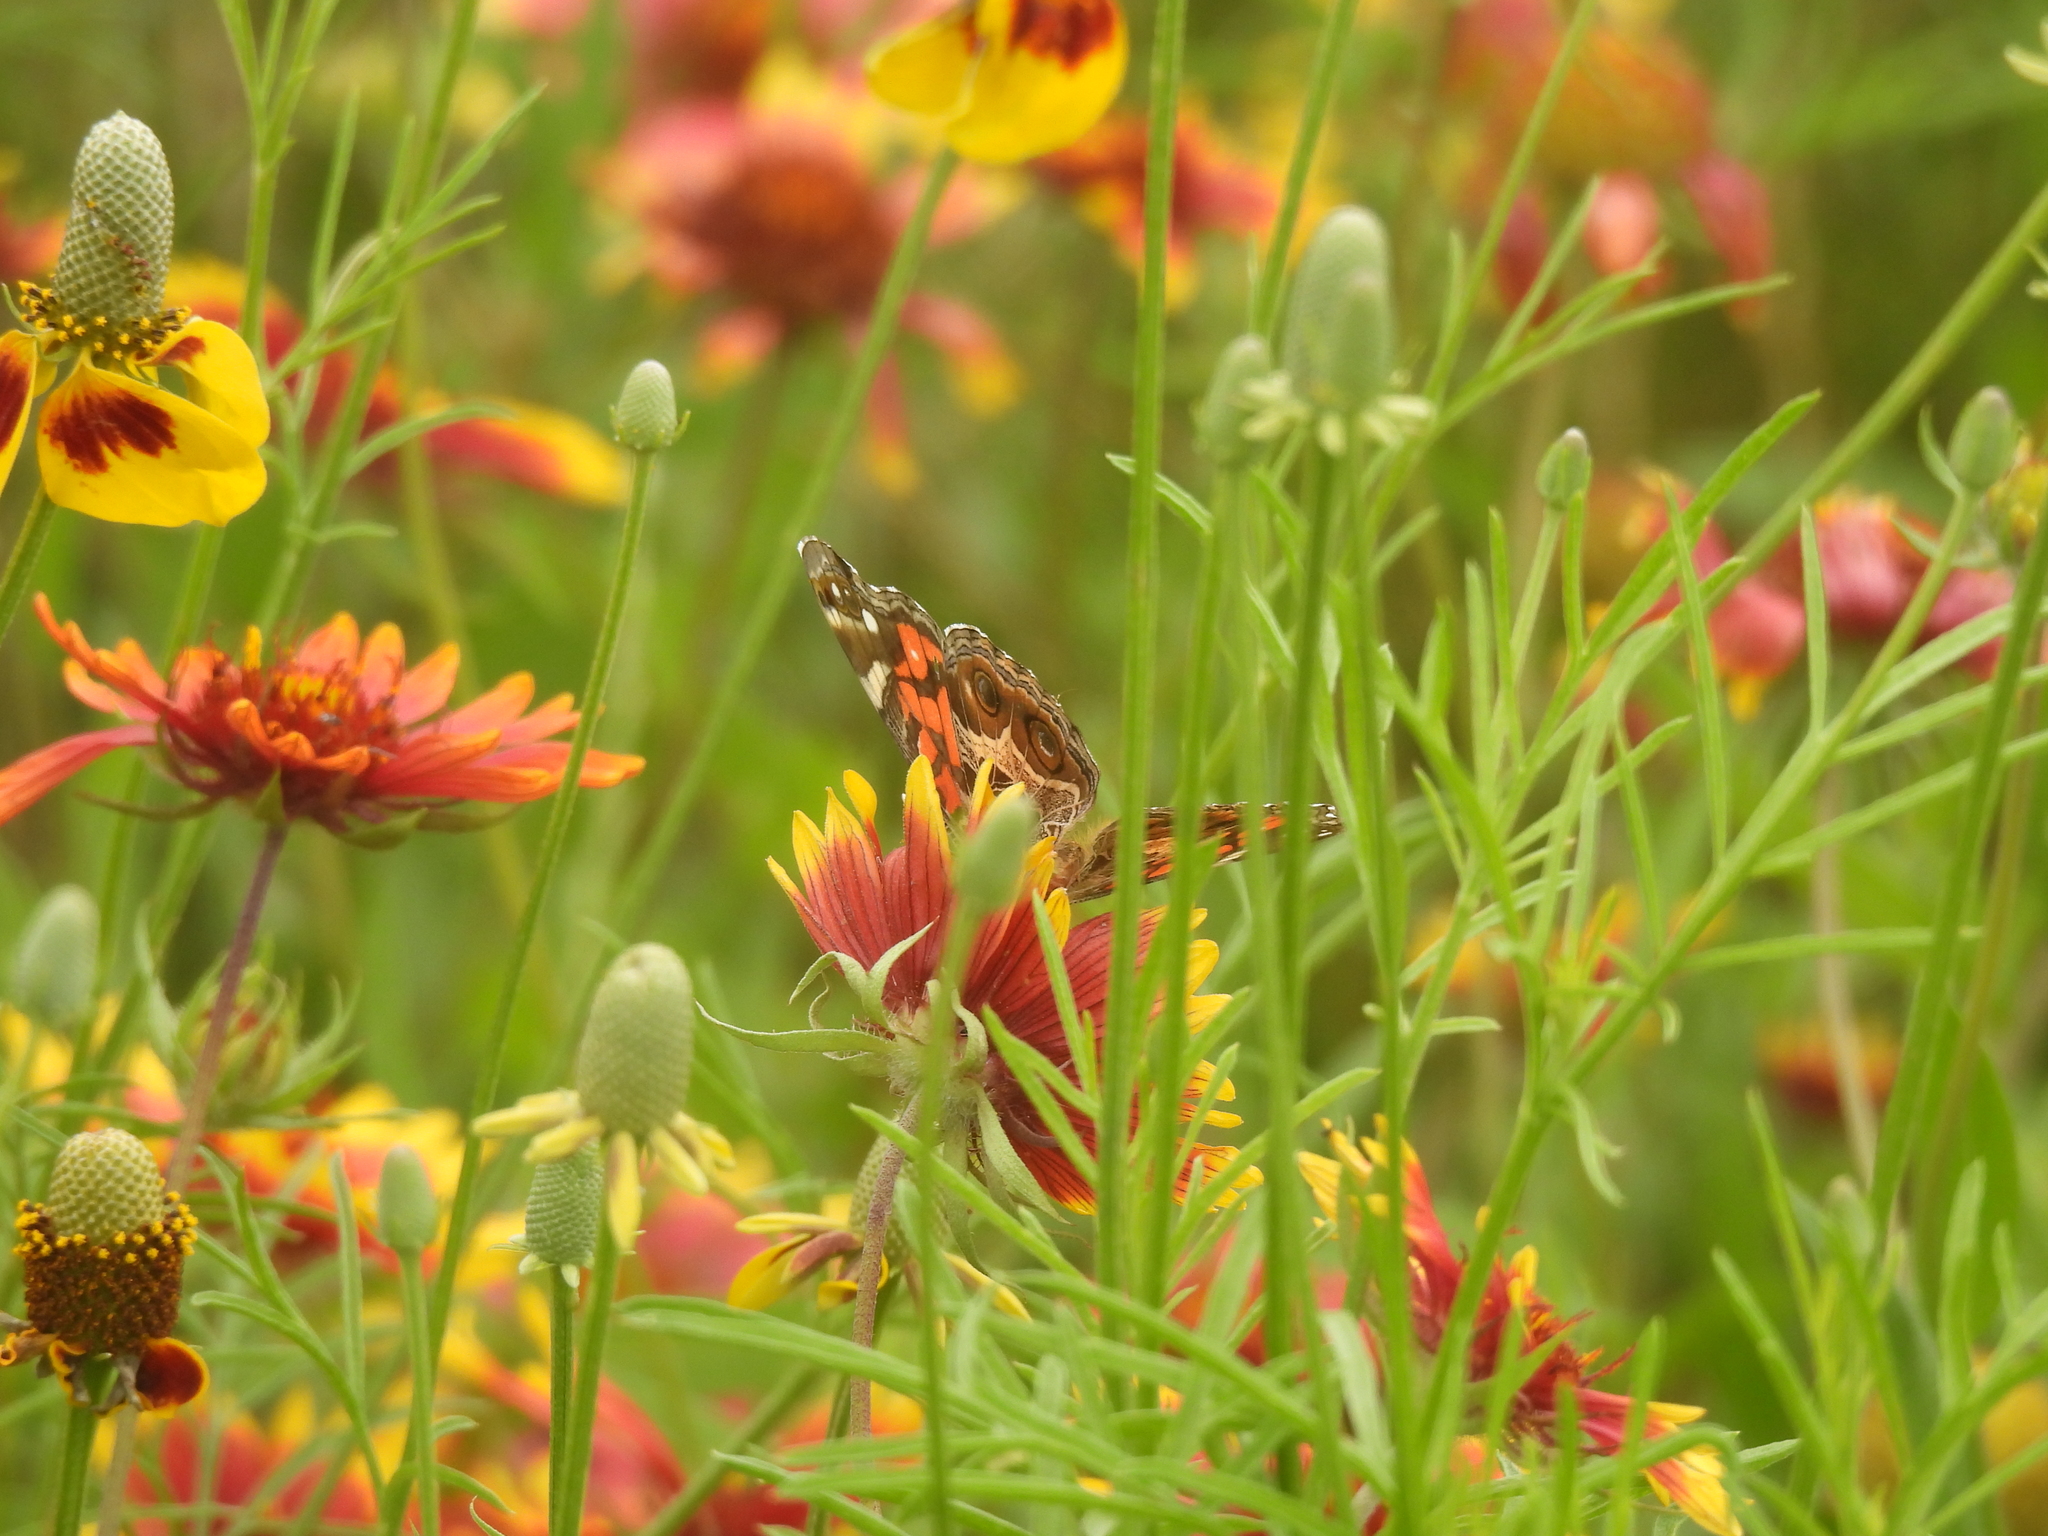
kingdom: Animalia
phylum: Arthropoda
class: Insecta
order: Lepidoptera
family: Nymphalidae
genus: Vanessa
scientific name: Vanessa virginiensis
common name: American lady
